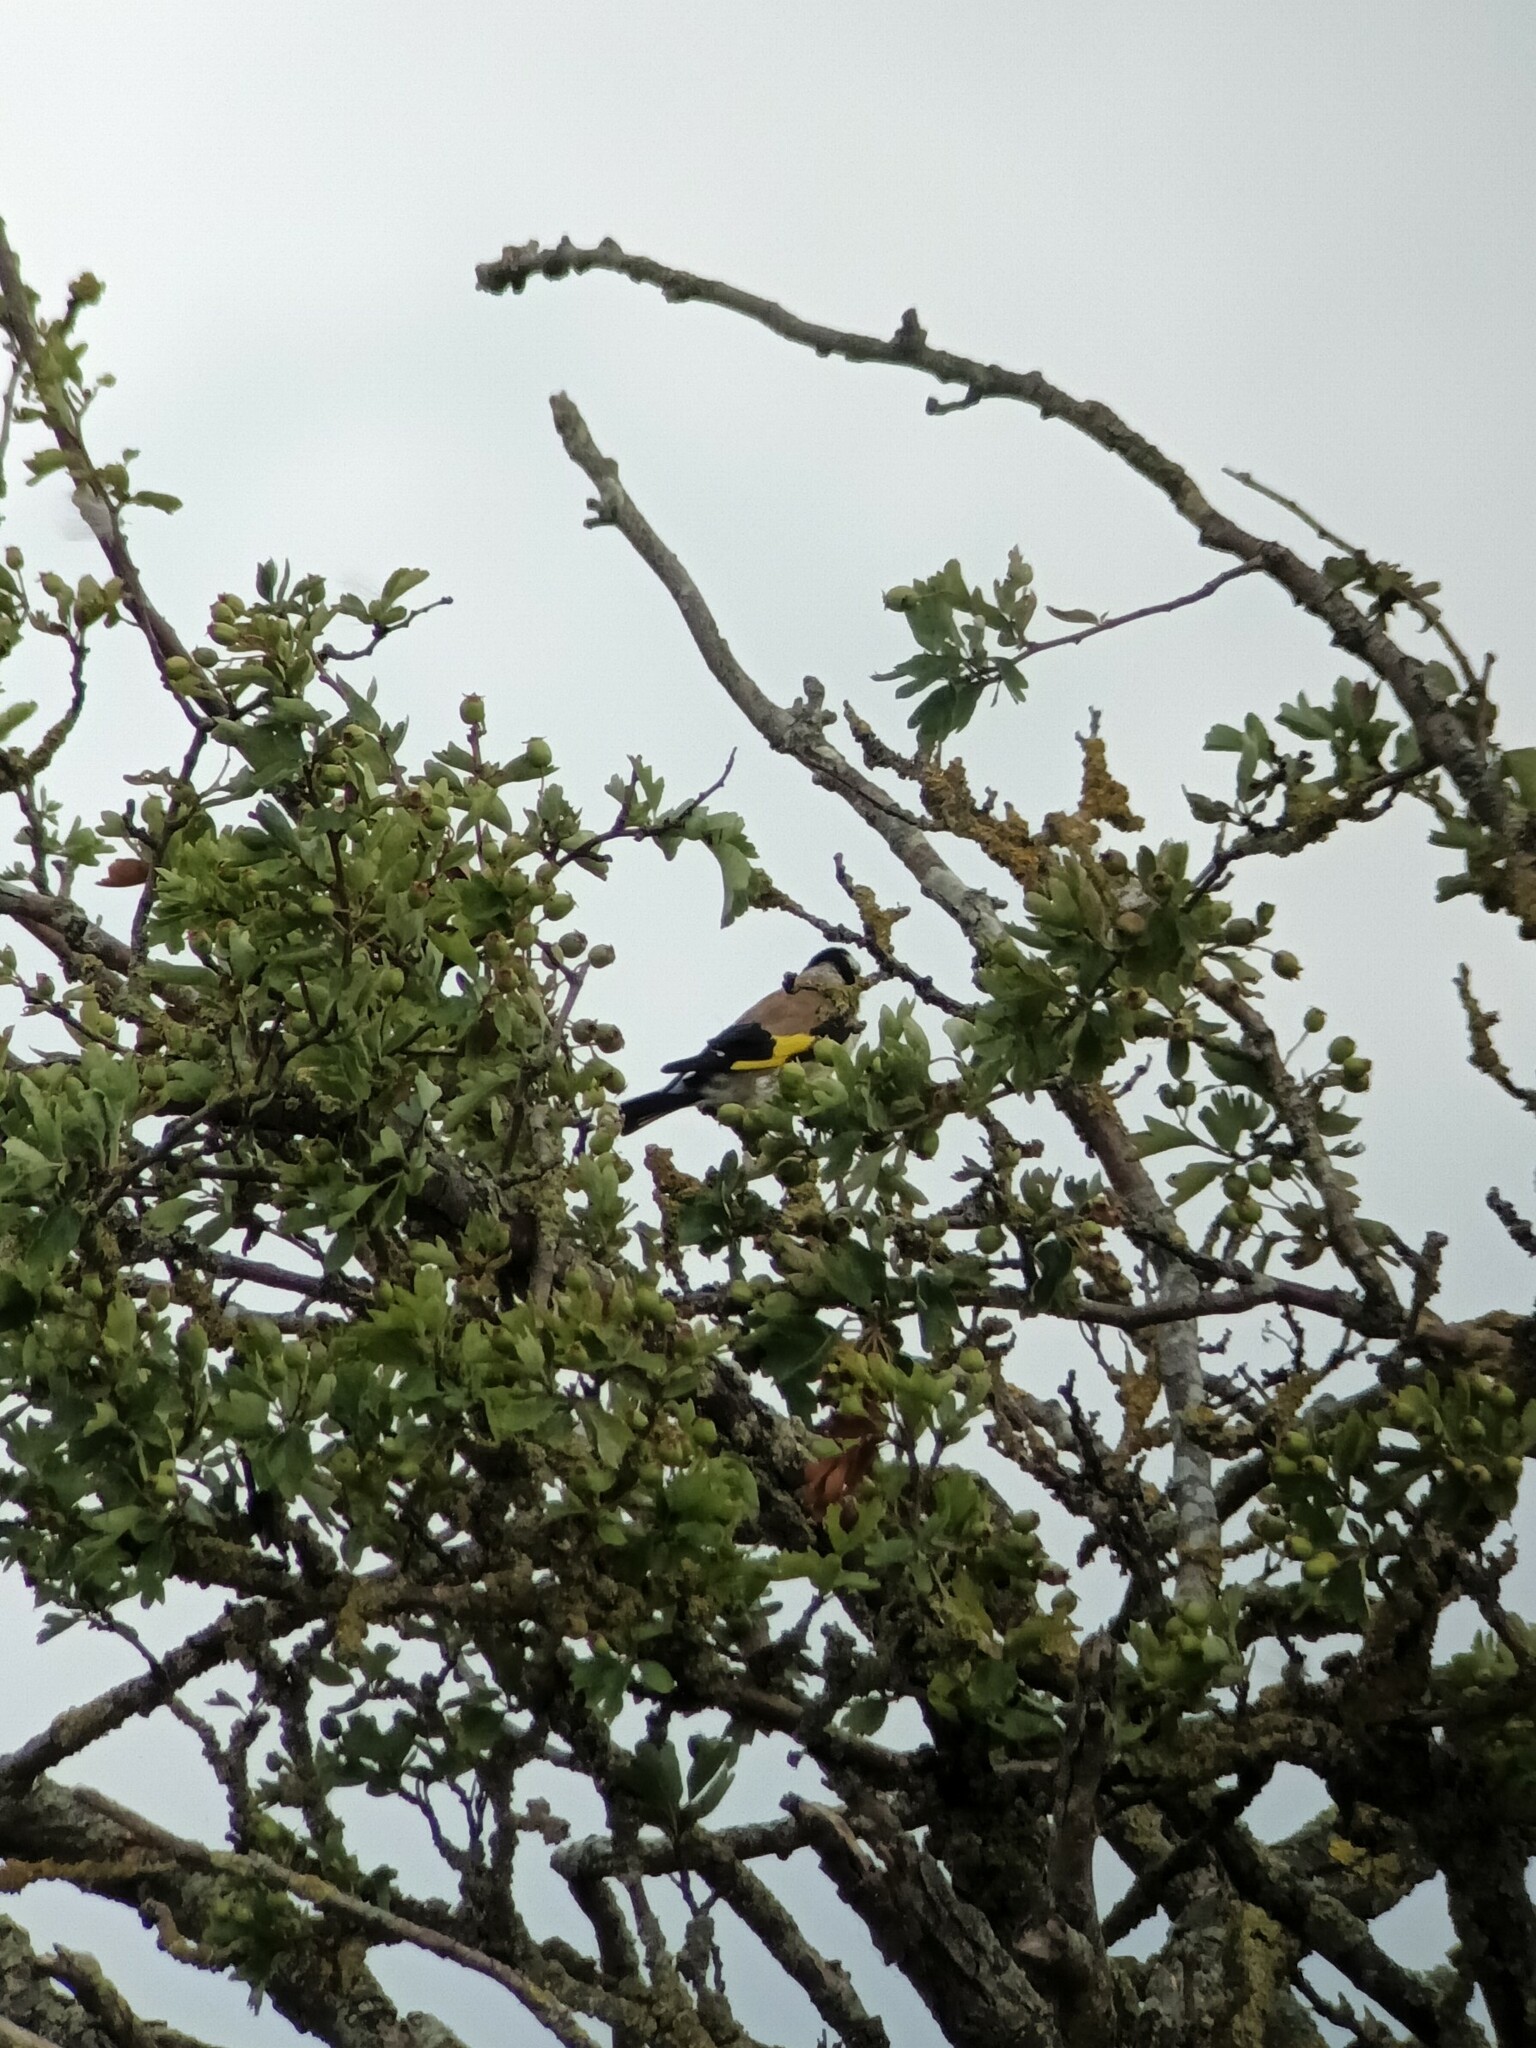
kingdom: Animalia
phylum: Chordata
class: Aves
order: Passeriformes
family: Fringillidae
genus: Carduelis
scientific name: Carduelis carduelis
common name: European goldfinch
